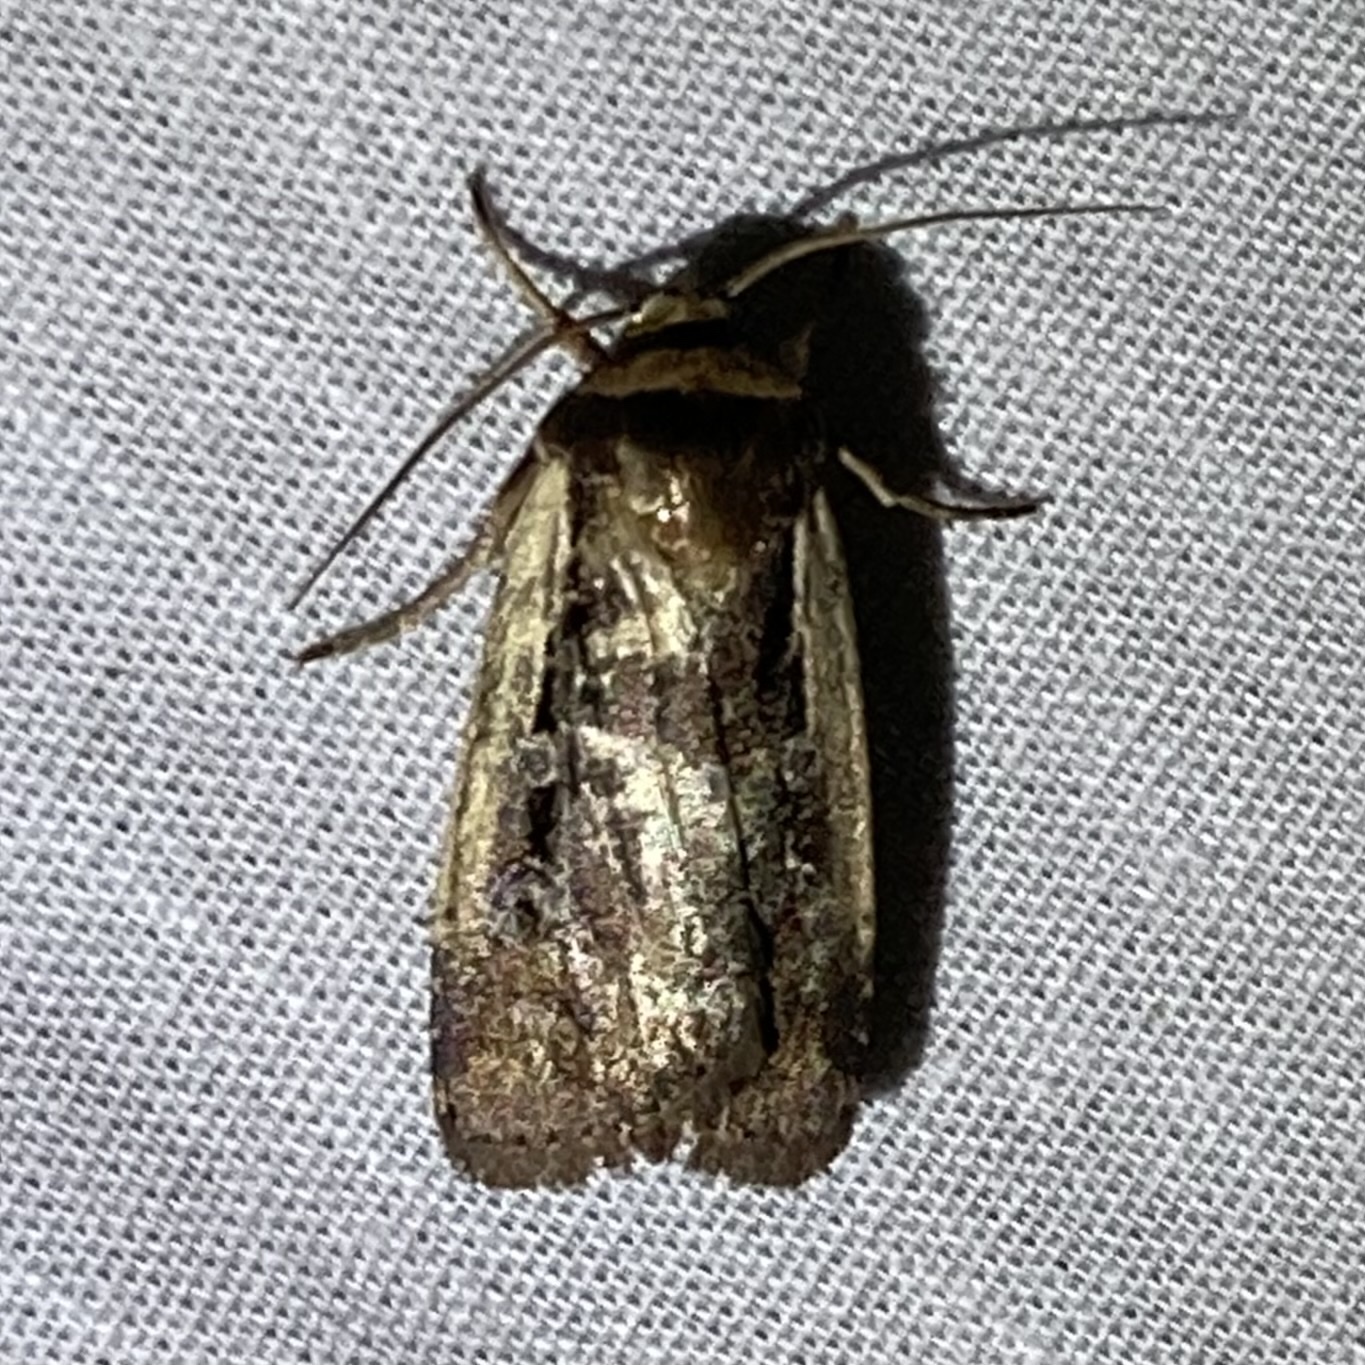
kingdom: Animalia
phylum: Arthropoda
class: Insecta
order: Lepidoptera
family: Noctuidae
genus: Ochropleura
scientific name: Ochropleura implecta
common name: Flame-shouldered dart
